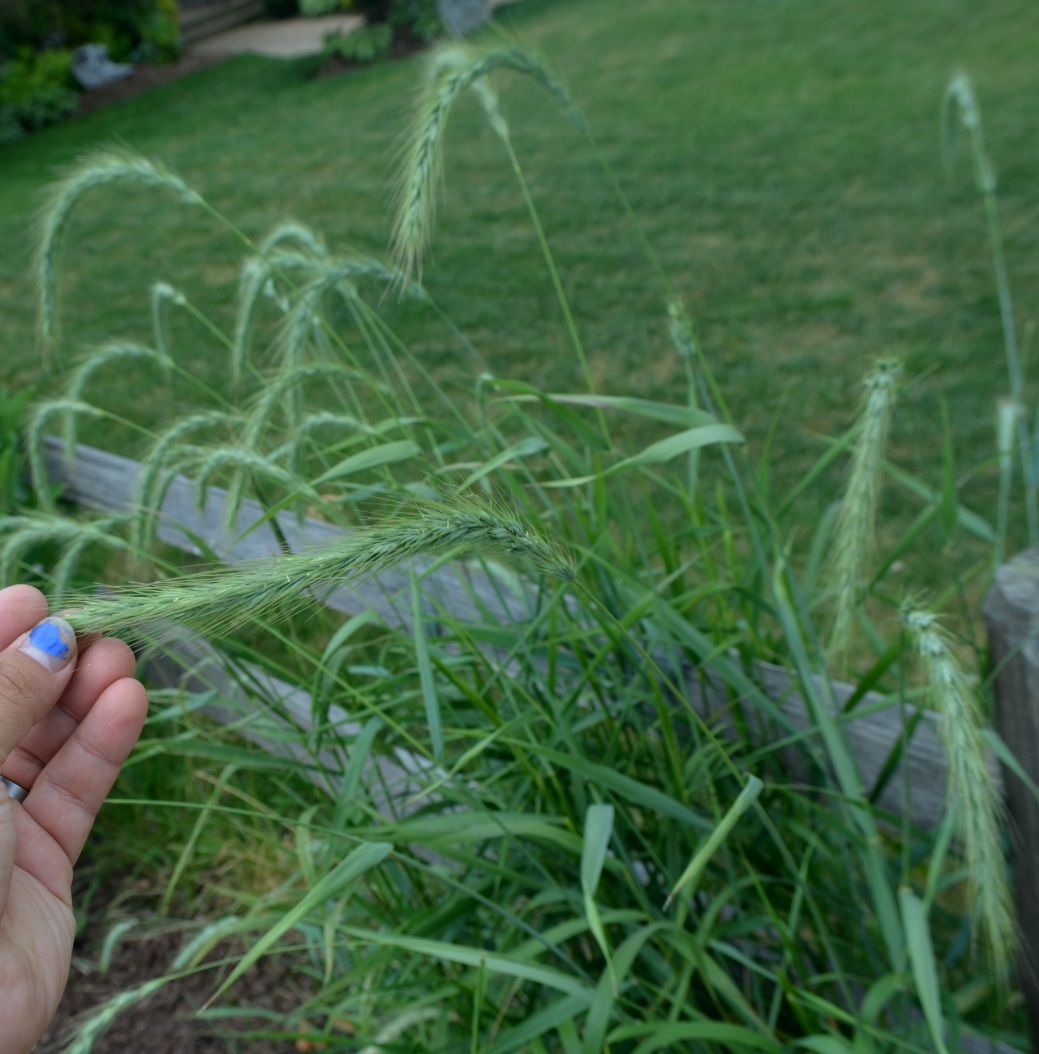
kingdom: Plantae
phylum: Tracheophyta
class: Liliopsida
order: Poales
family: Poaceae
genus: Elymus
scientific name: Elymus canadensis
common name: Canada wild rye
